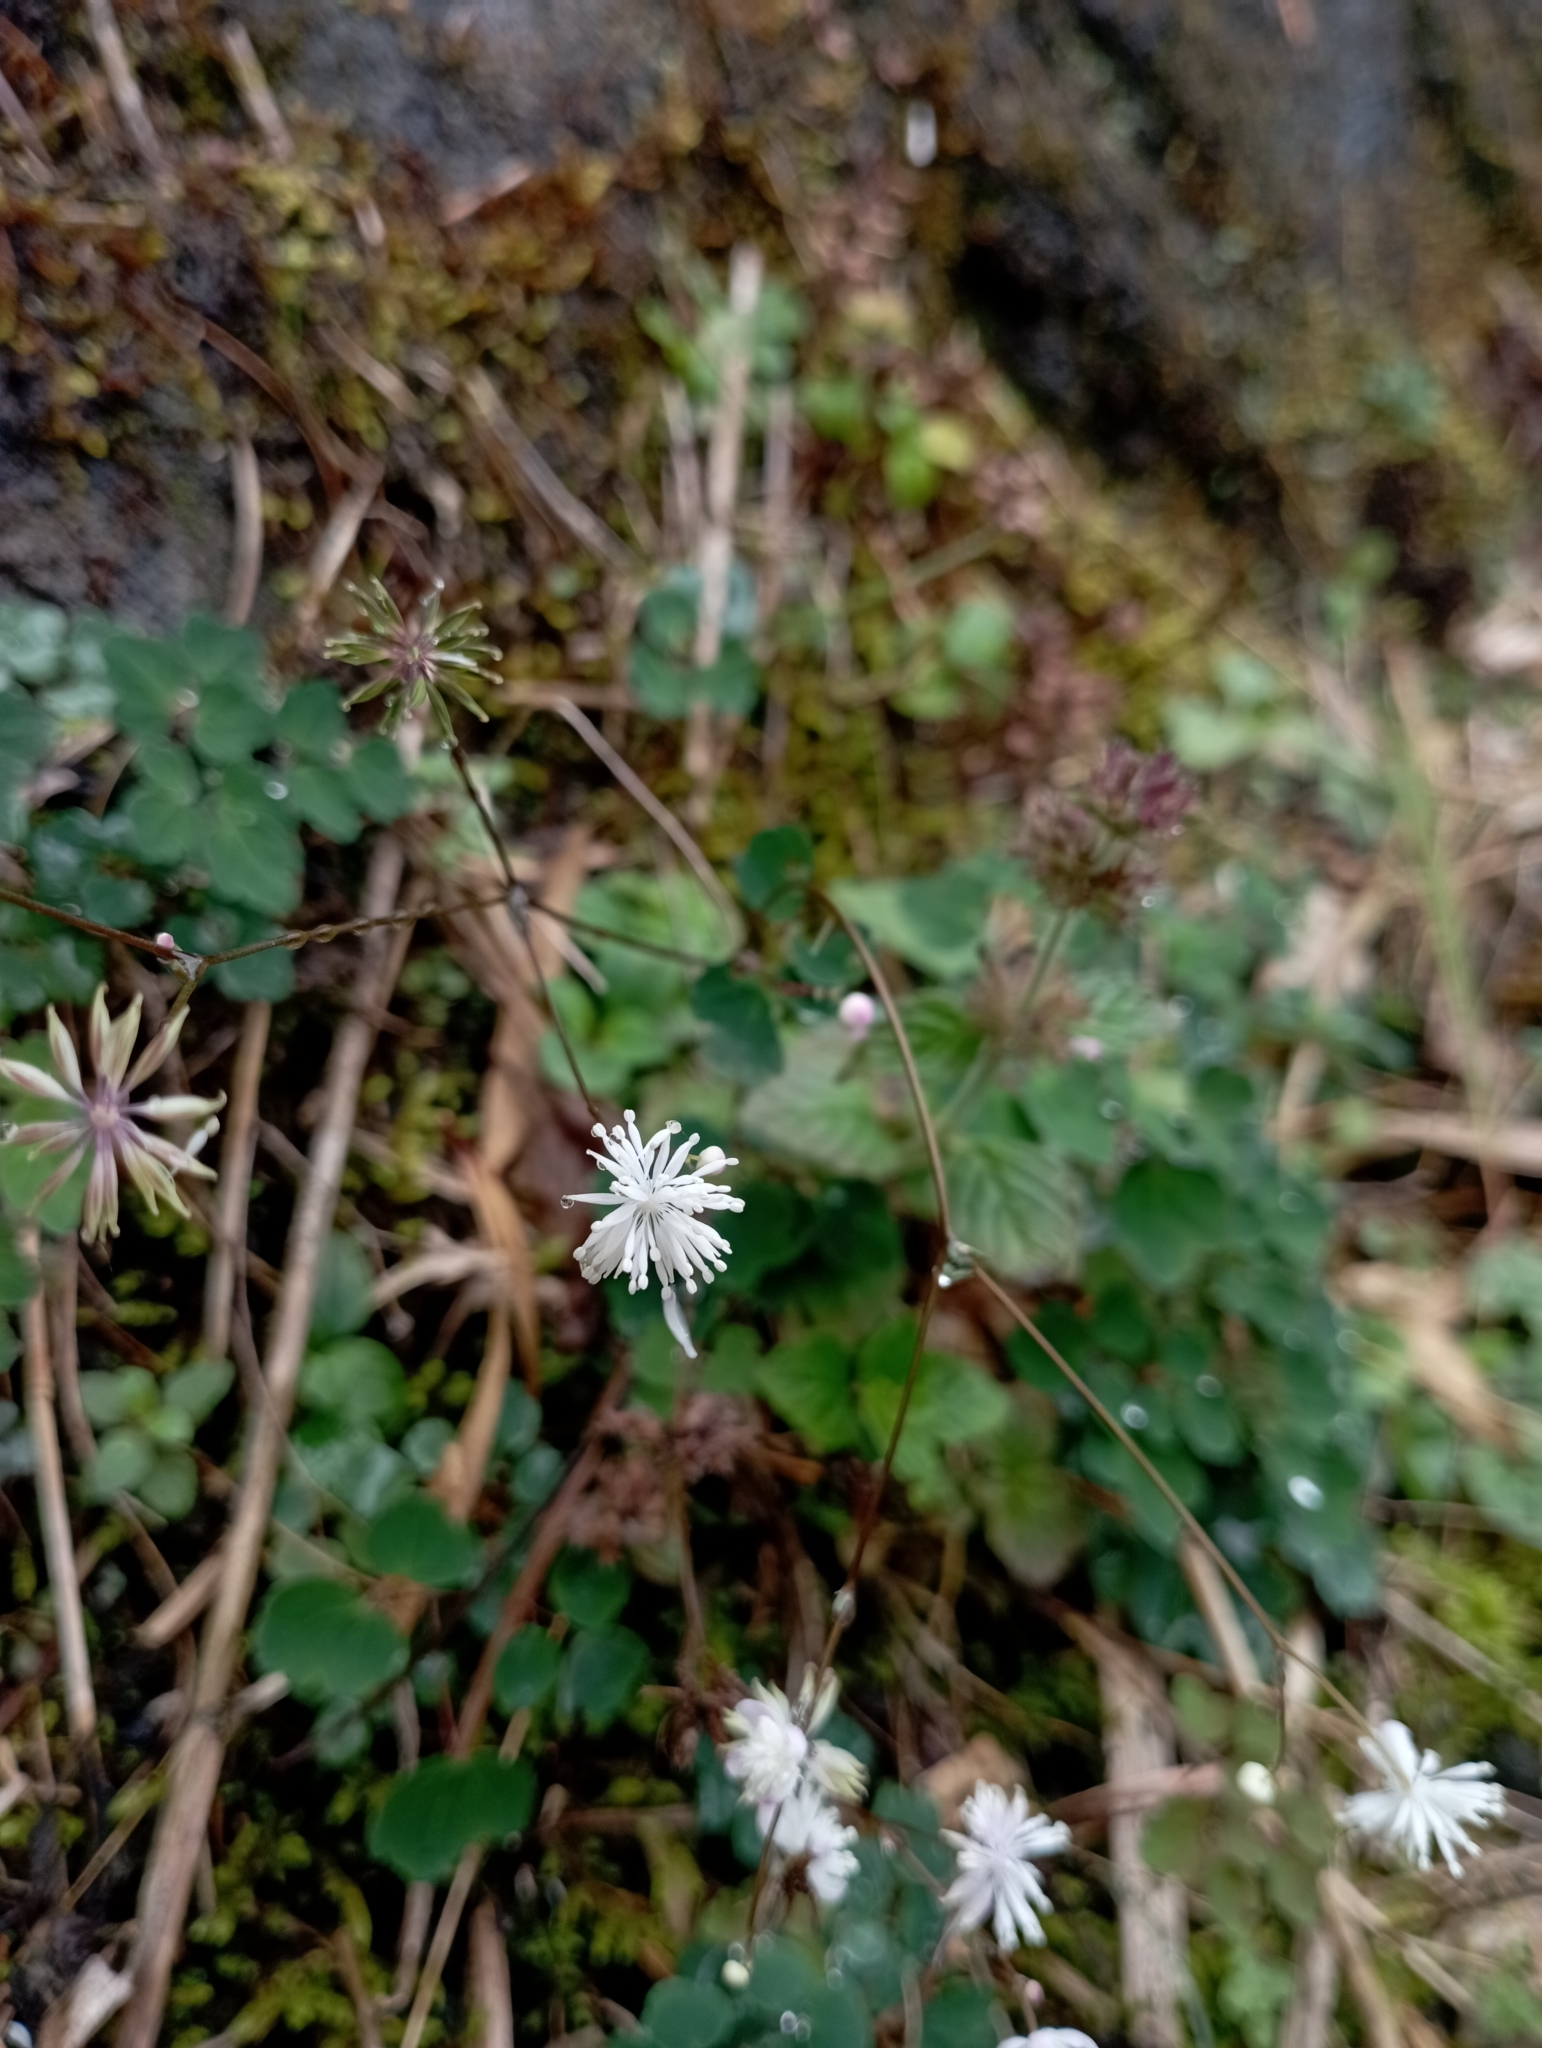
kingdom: Plantae
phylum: Tracheophyta
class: Magnoliopsida
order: Ranunculales
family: Ranunculaceae
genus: Thalictrum
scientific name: Thalictrum urbaini
